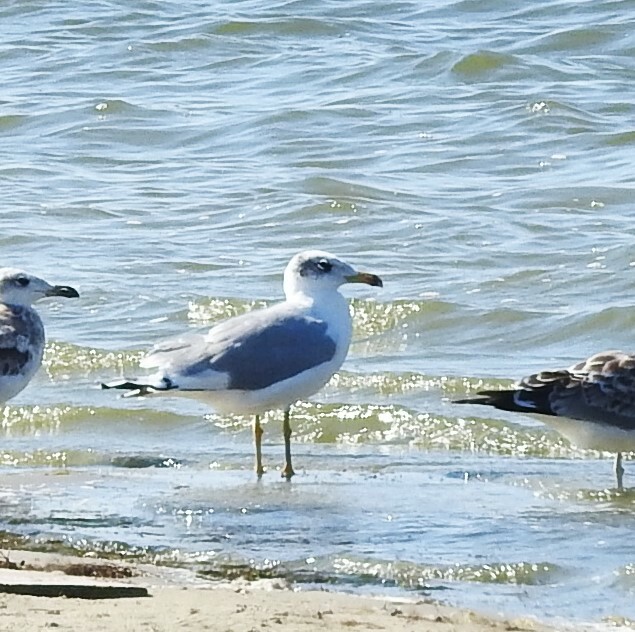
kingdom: Animalia
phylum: Chordata
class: Aves
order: Charadriiformes
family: Laridae
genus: Ichthyaetus
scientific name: Ichthyaetus ichthyaetus
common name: Pallas's gull
